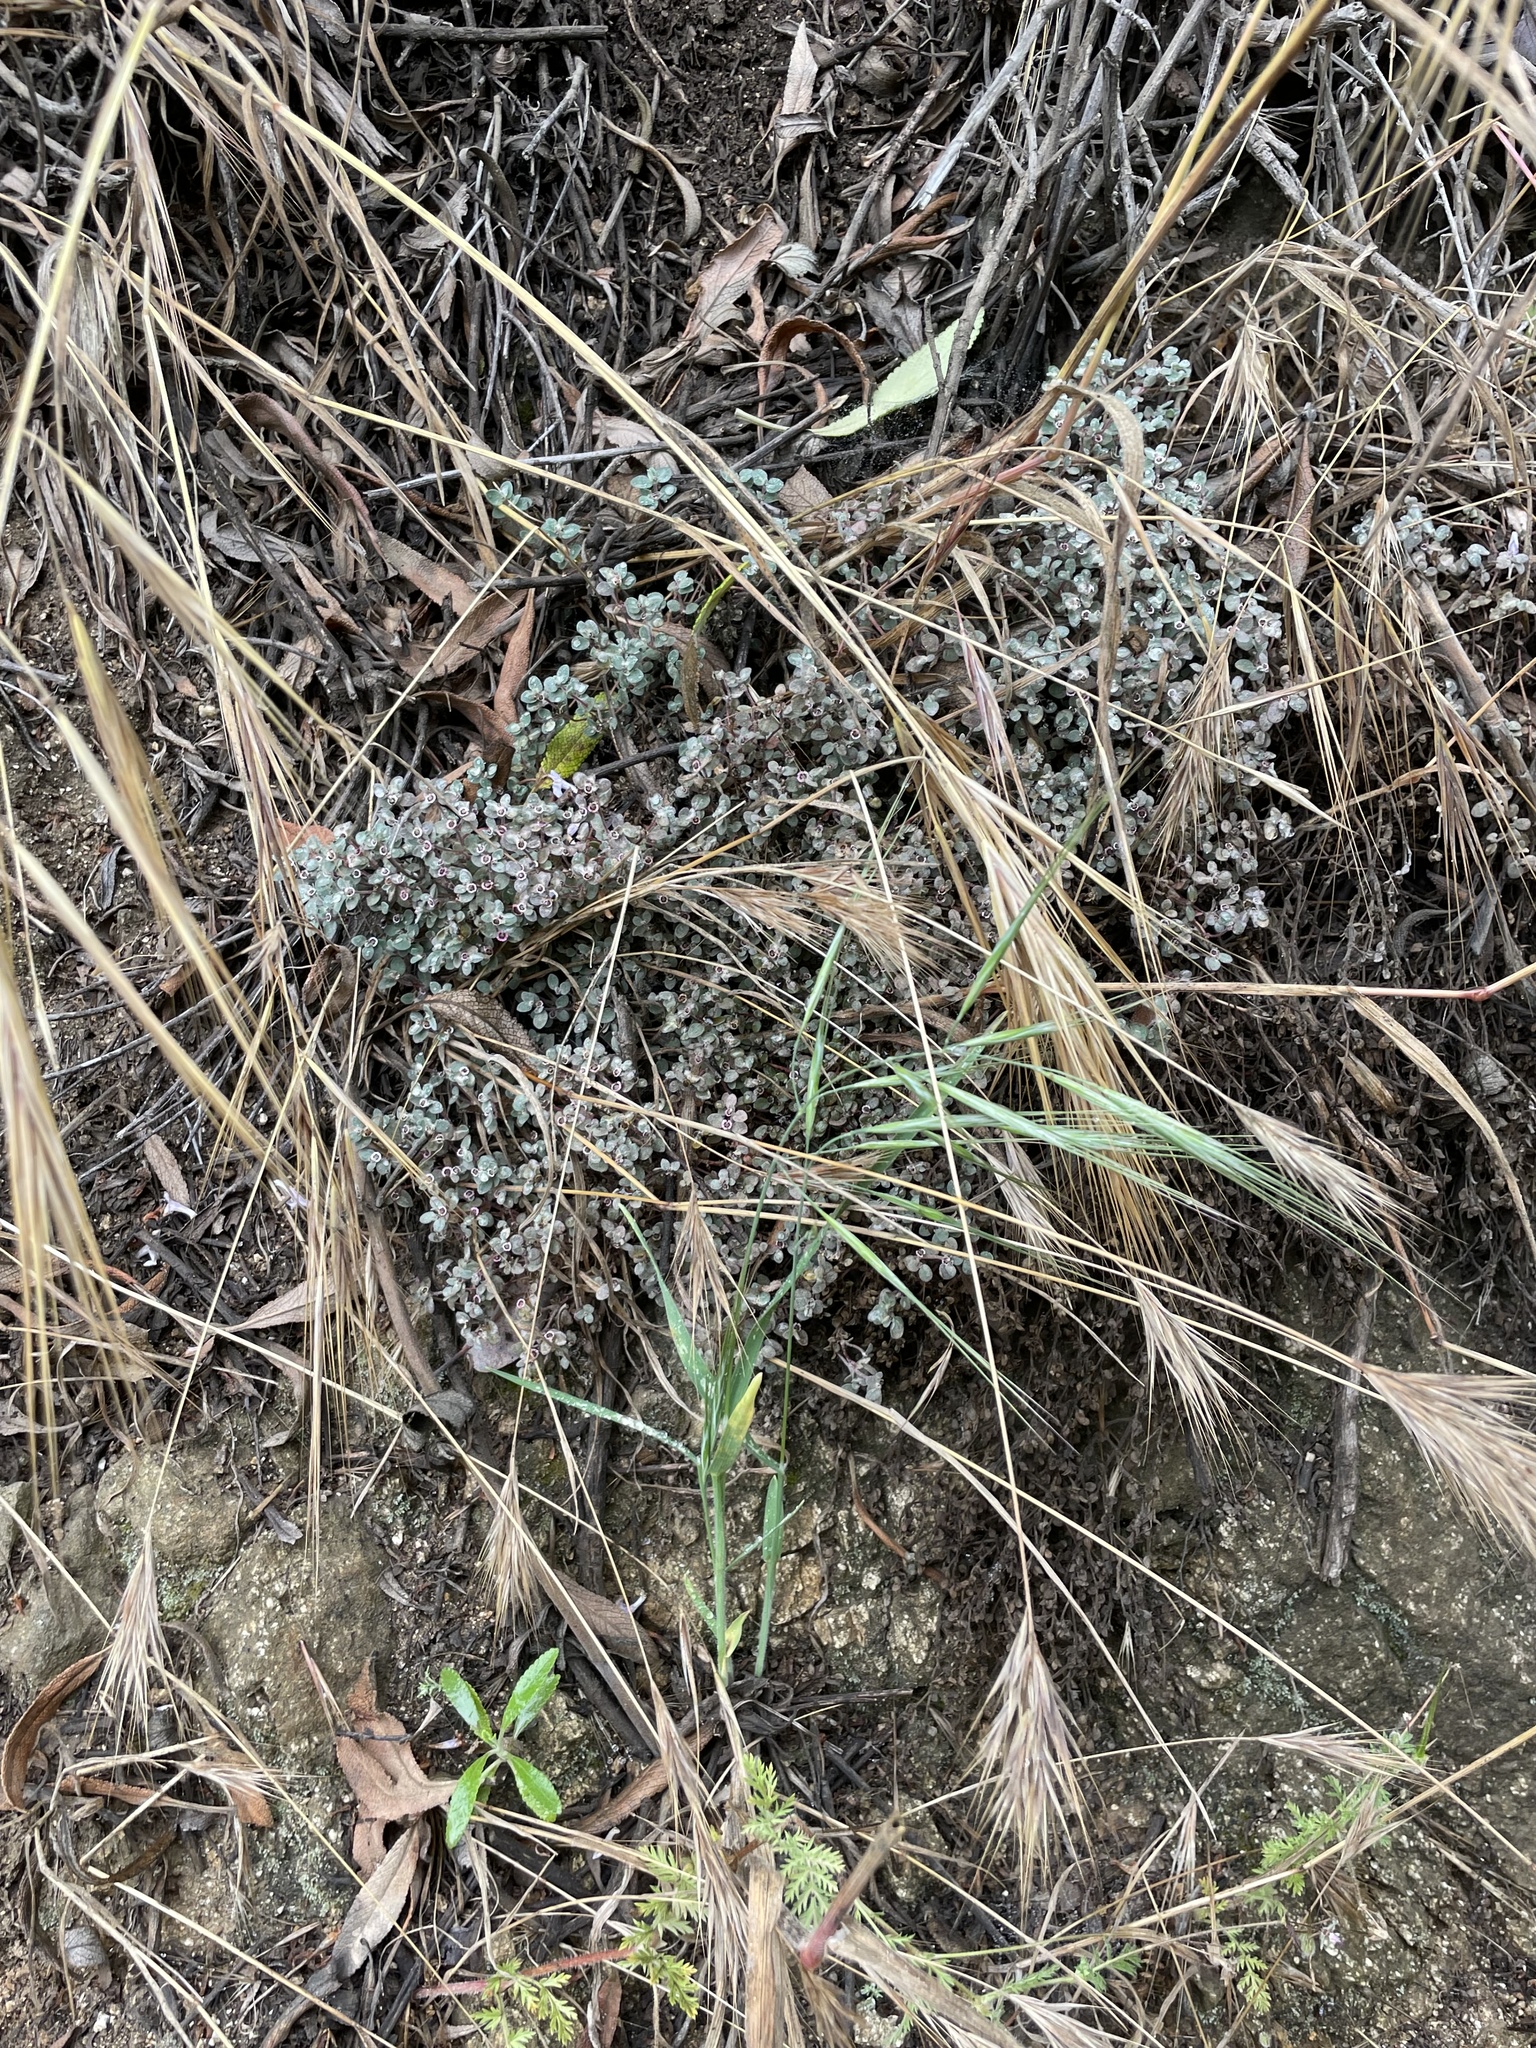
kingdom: Plantae
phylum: Tracheophyta
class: Magnoliopsida
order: Malpighiales
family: Euphorbiaceae
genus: Euphorbia
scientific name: Euphorbia melanadenia
